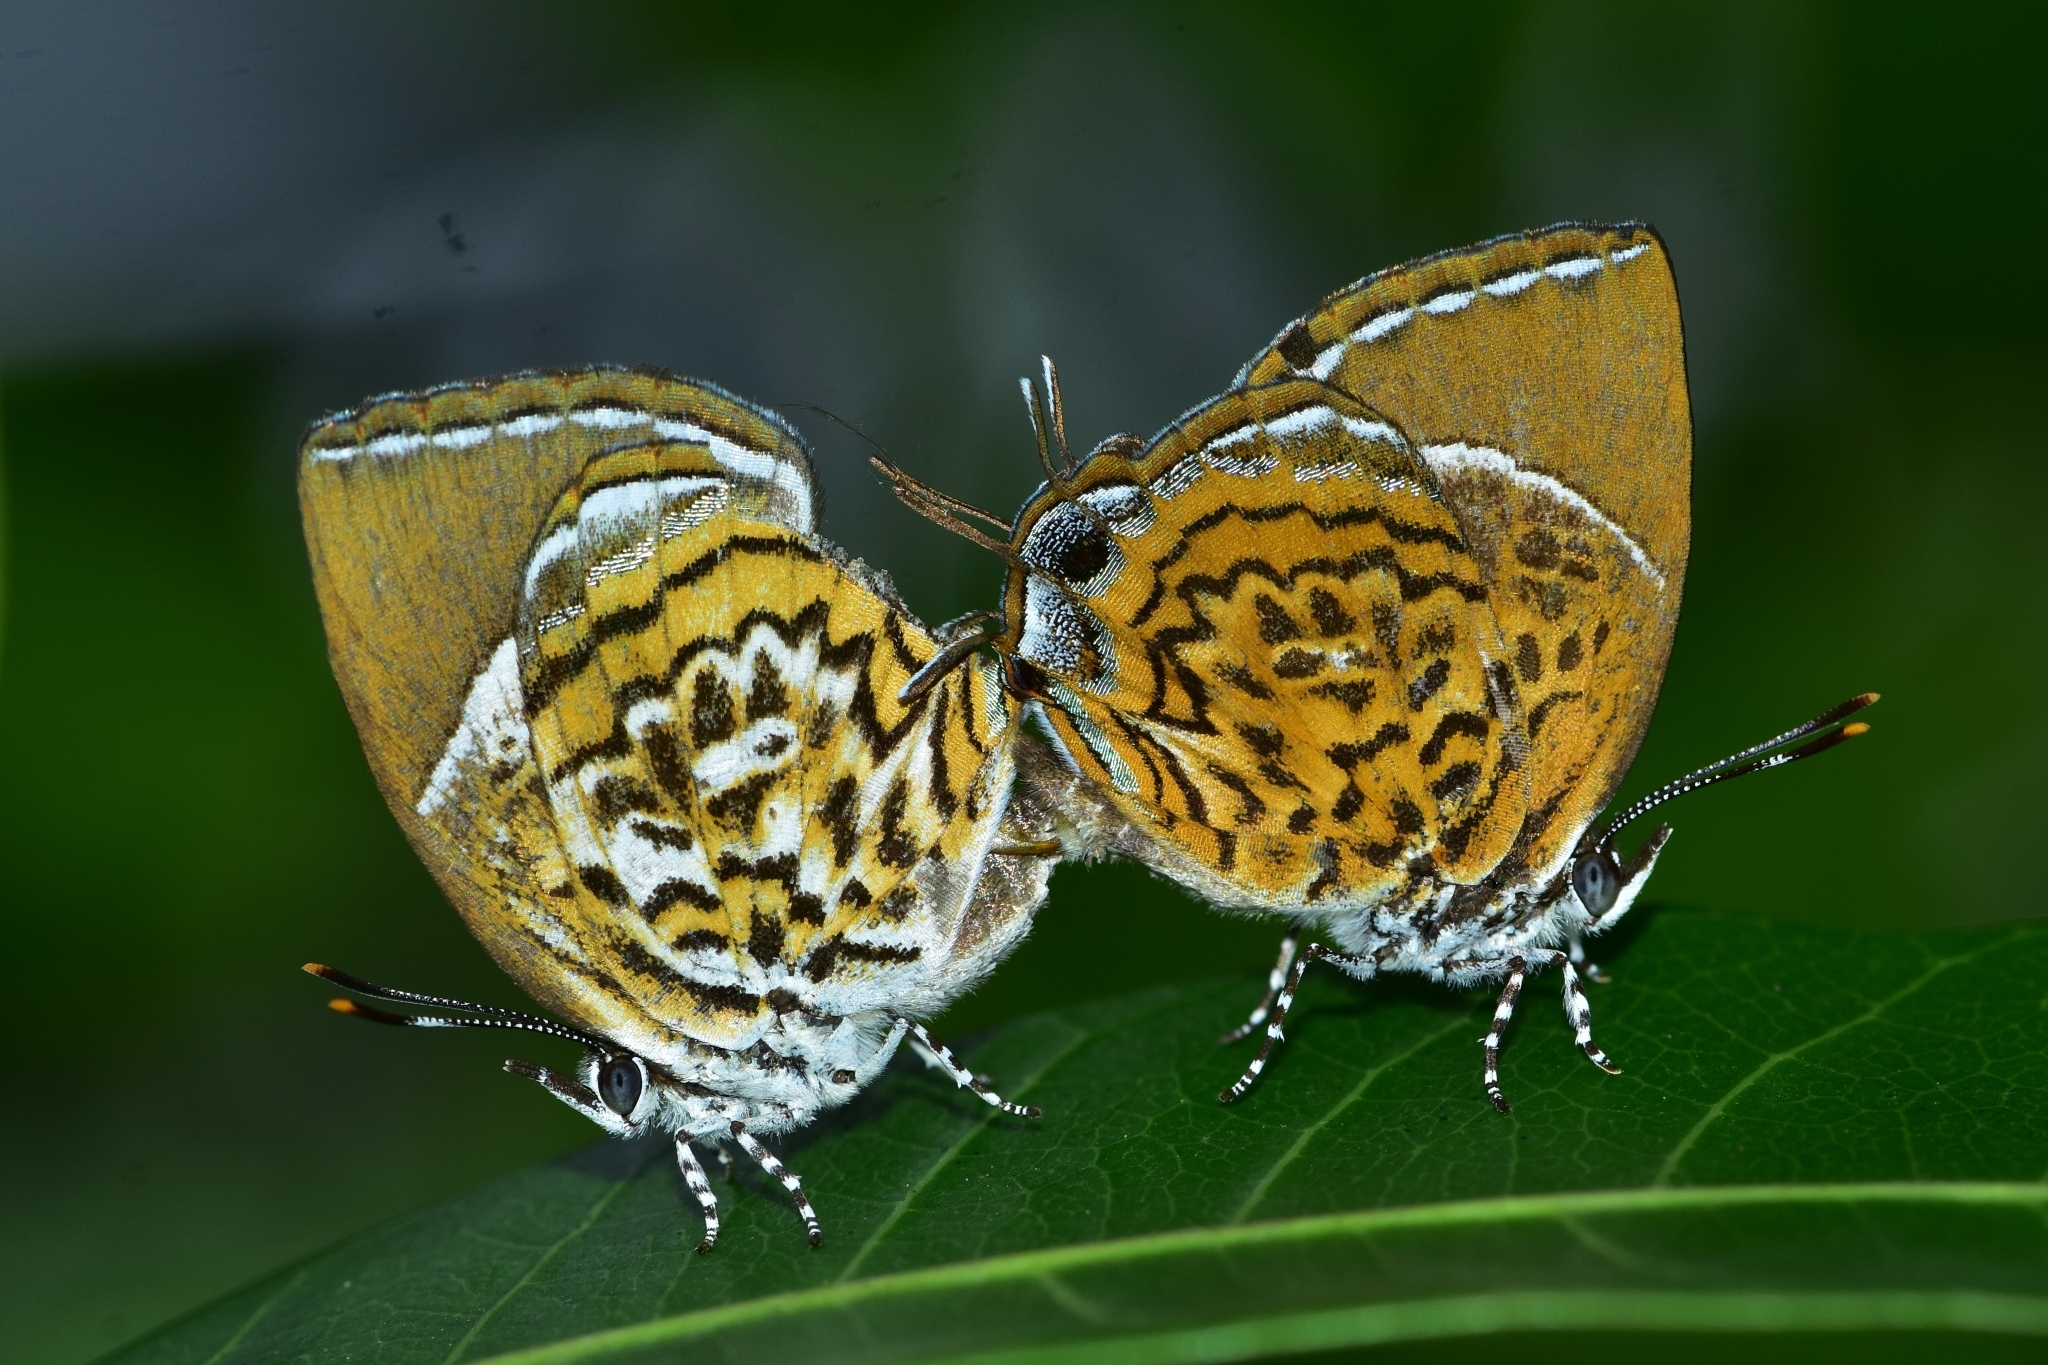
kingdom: Animalia
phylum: Arthropoda
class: Insecta
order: Lepidoptera
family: Lycaenidae
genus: Rathinda
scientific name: Rathinda amor
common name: Monkey puzzle
